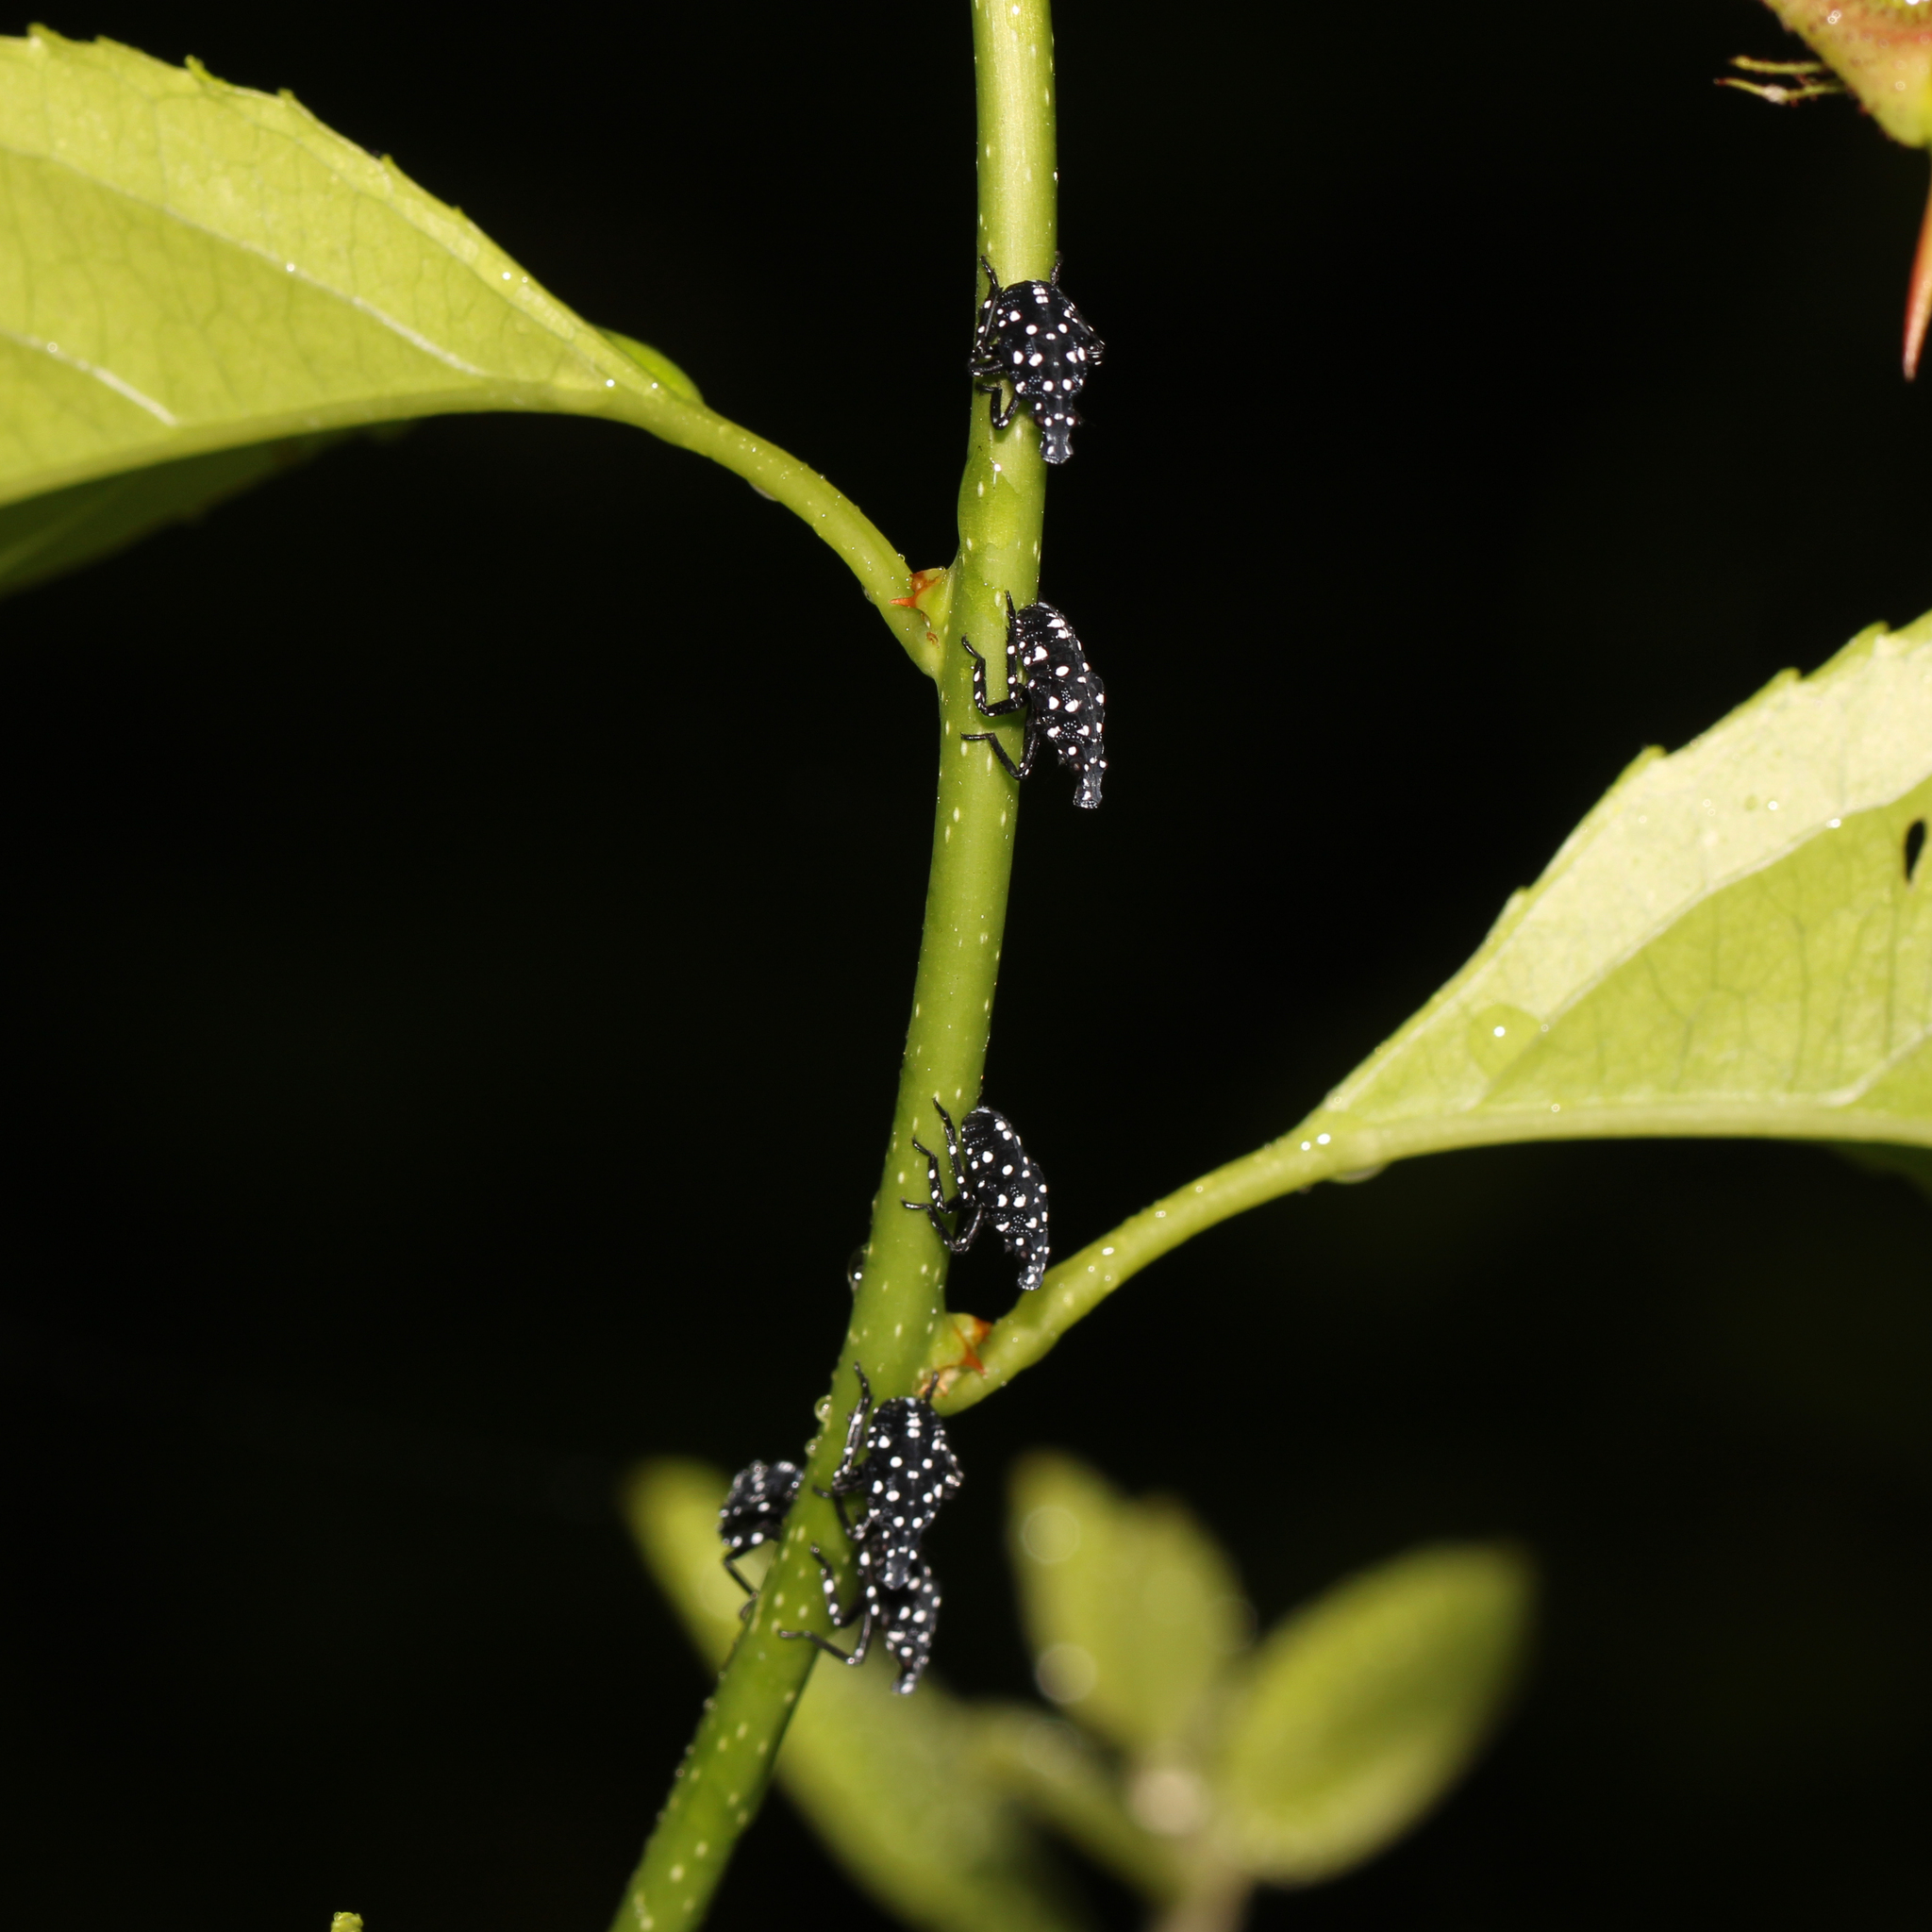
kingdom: Animalia
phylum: Arthropoda
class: Insecta
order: Hemiptera
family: Fulgoridae
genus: Lycorma
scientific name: Lycorma delicatula
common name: Spotted lanternfly
